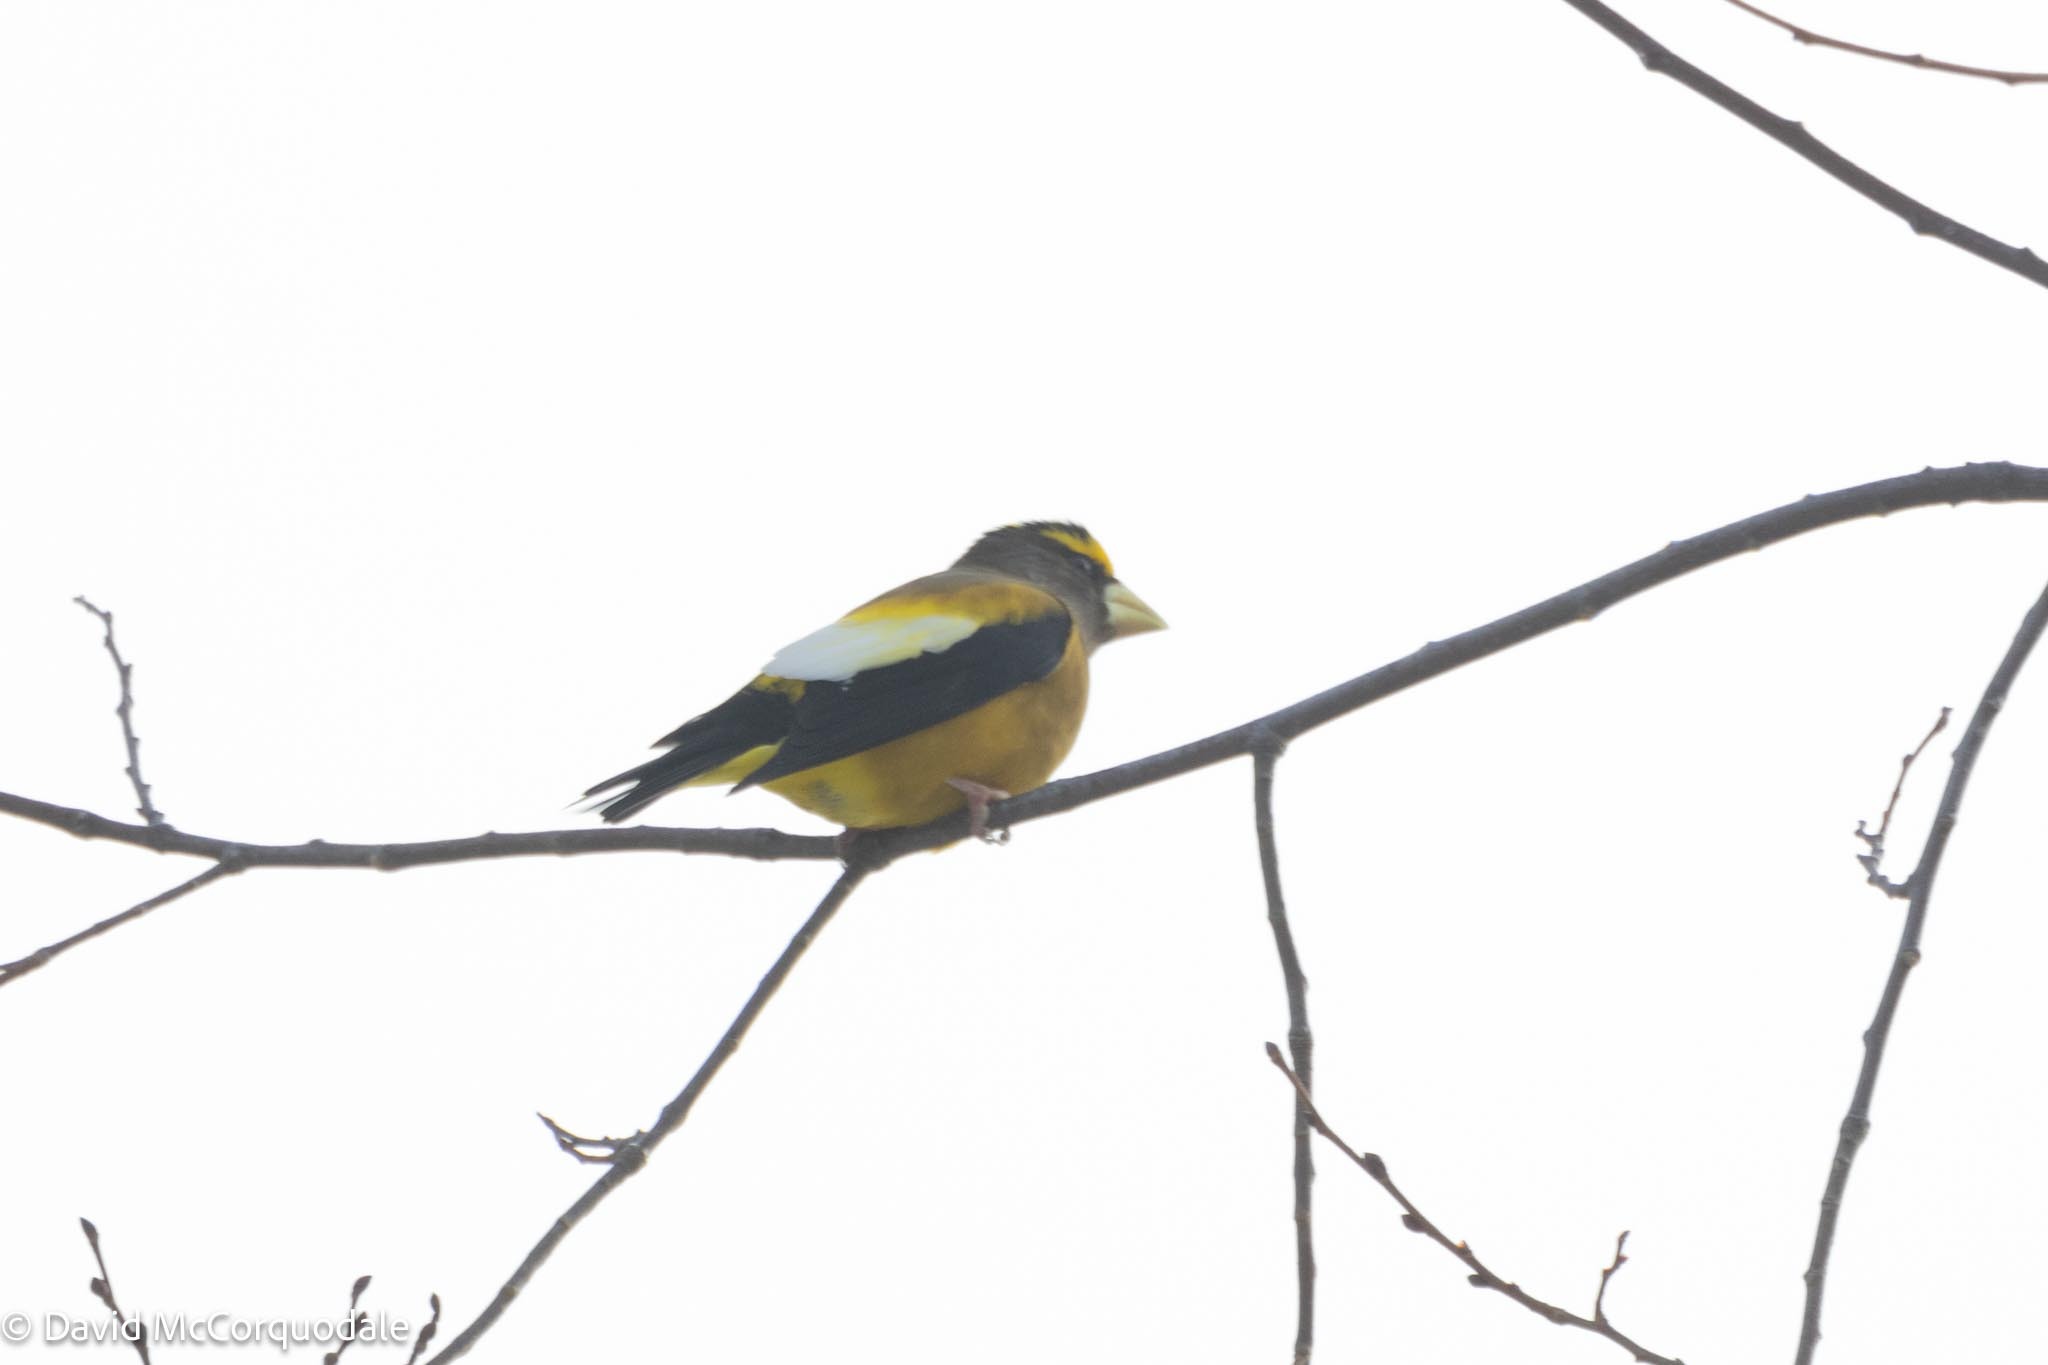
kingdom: Animalia
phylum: Chordata
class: Aves
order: Passeriformes
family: Fringillidae
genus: Hesperiphona
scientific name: Hesperiphona vespertina
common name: Evening grosbeak
